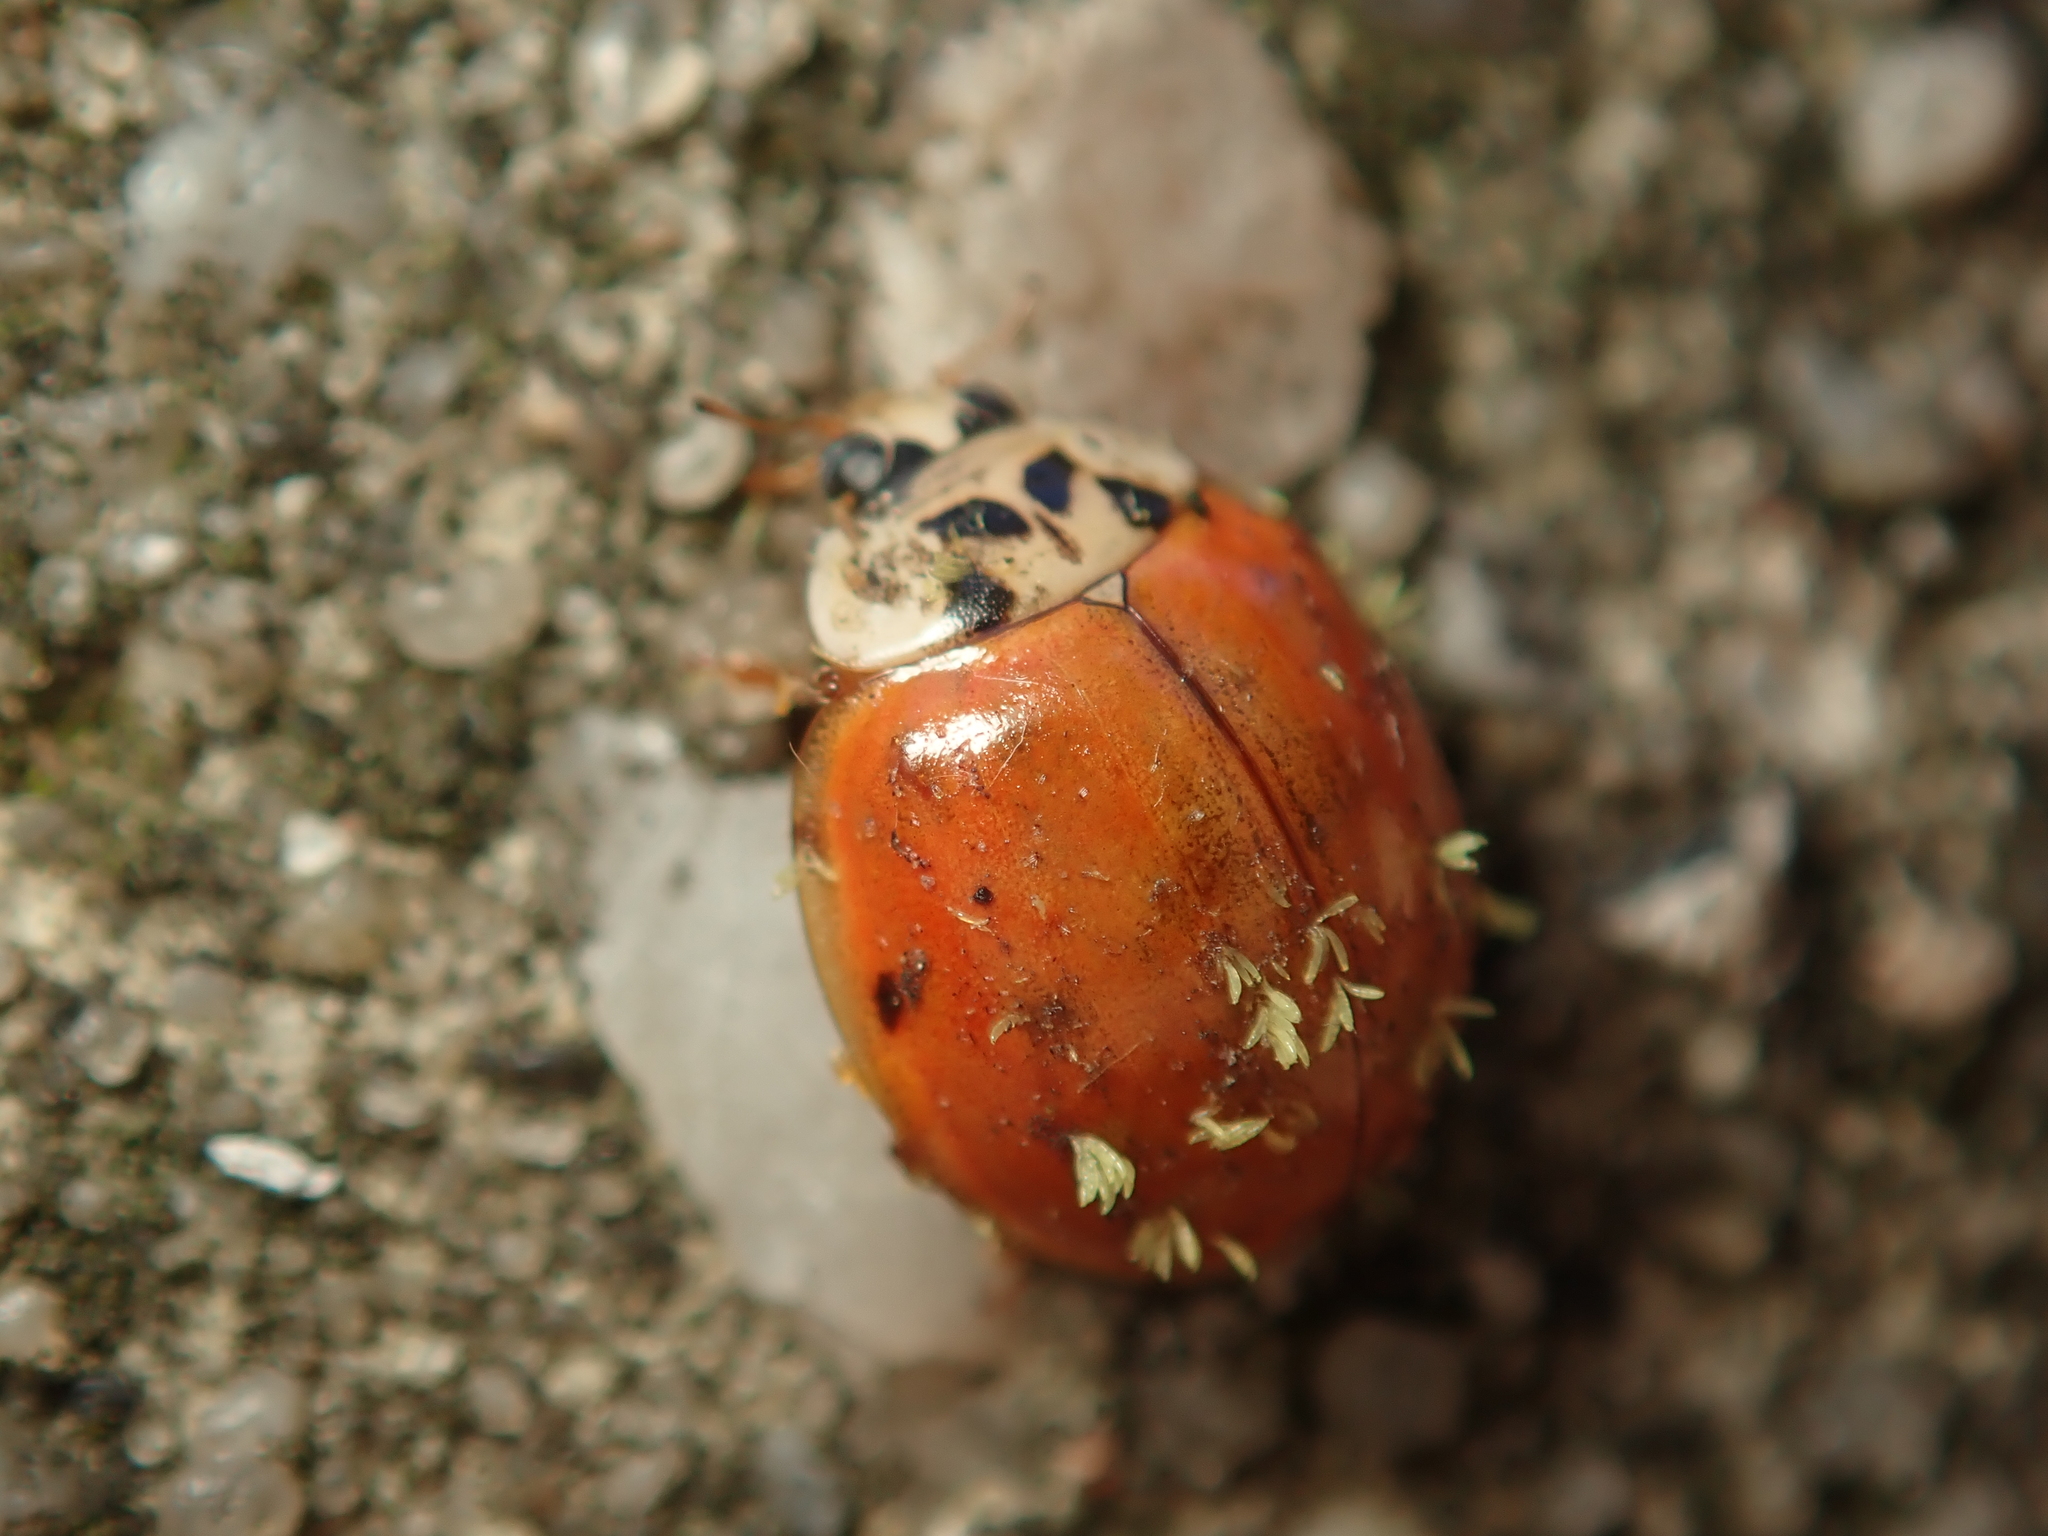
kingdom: Animalia
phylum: Arthropoda
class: Insecta
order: Coleoptera
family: Coccinellidae
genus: Harmonia
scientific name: Harmonia axyridis
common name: Harlequin ladybird
